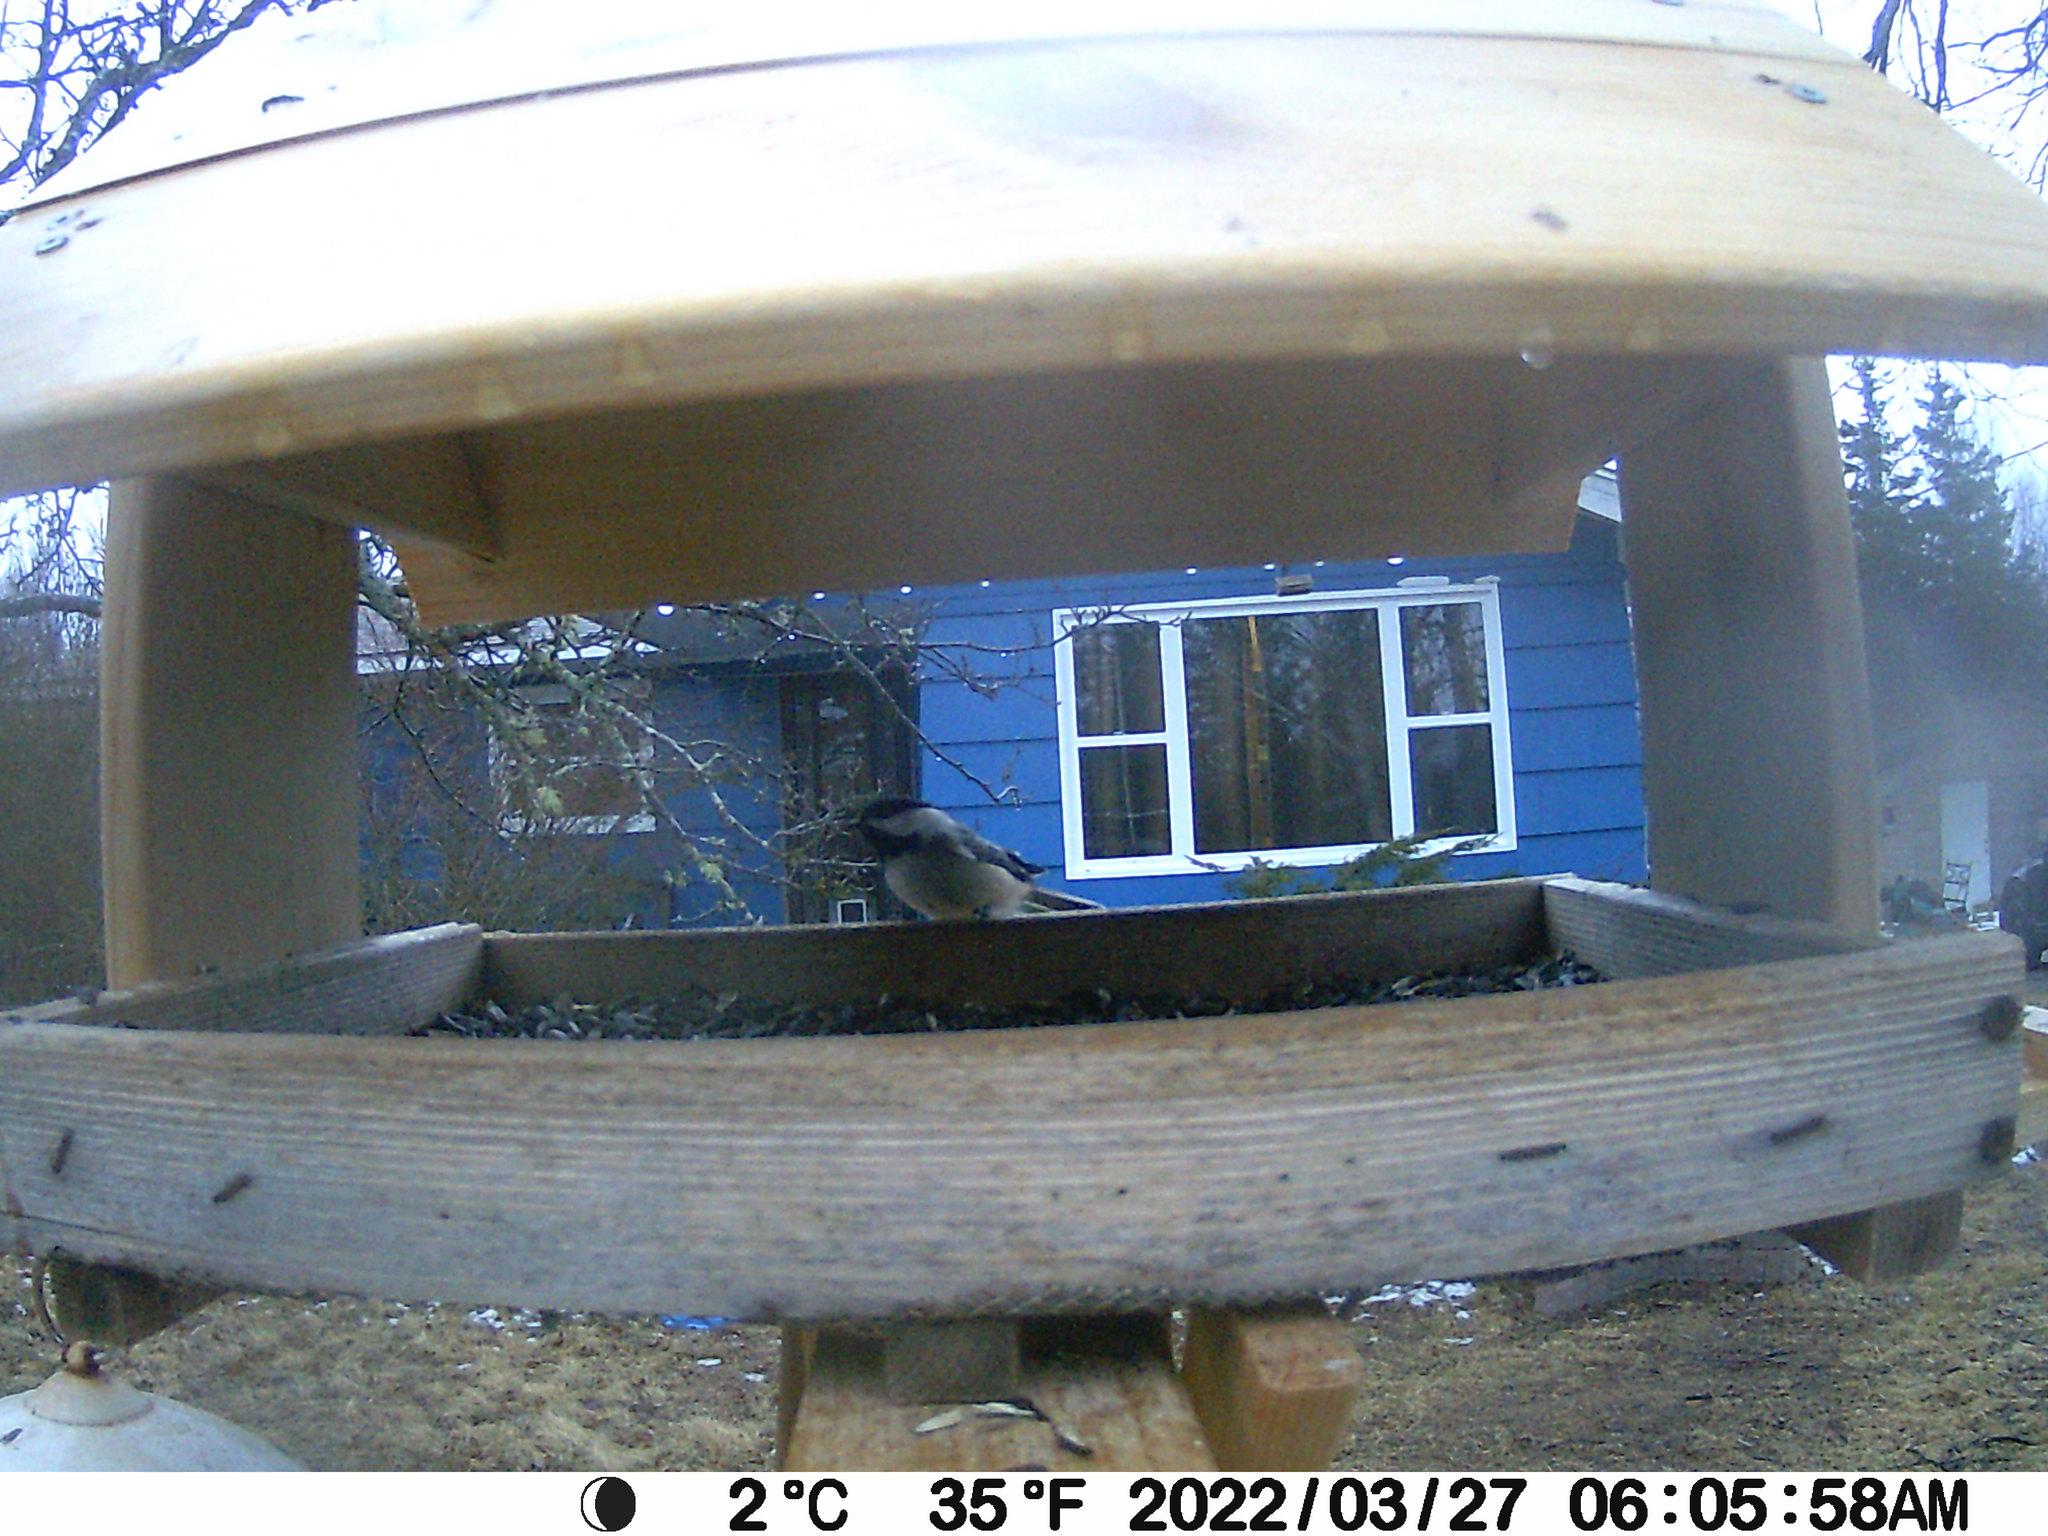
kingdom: Animalia
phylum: Chordata
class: Aves
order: Passeriformes
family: Fringillidae
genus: Spinus
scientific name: Spinus tristis
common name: American goldfinch
